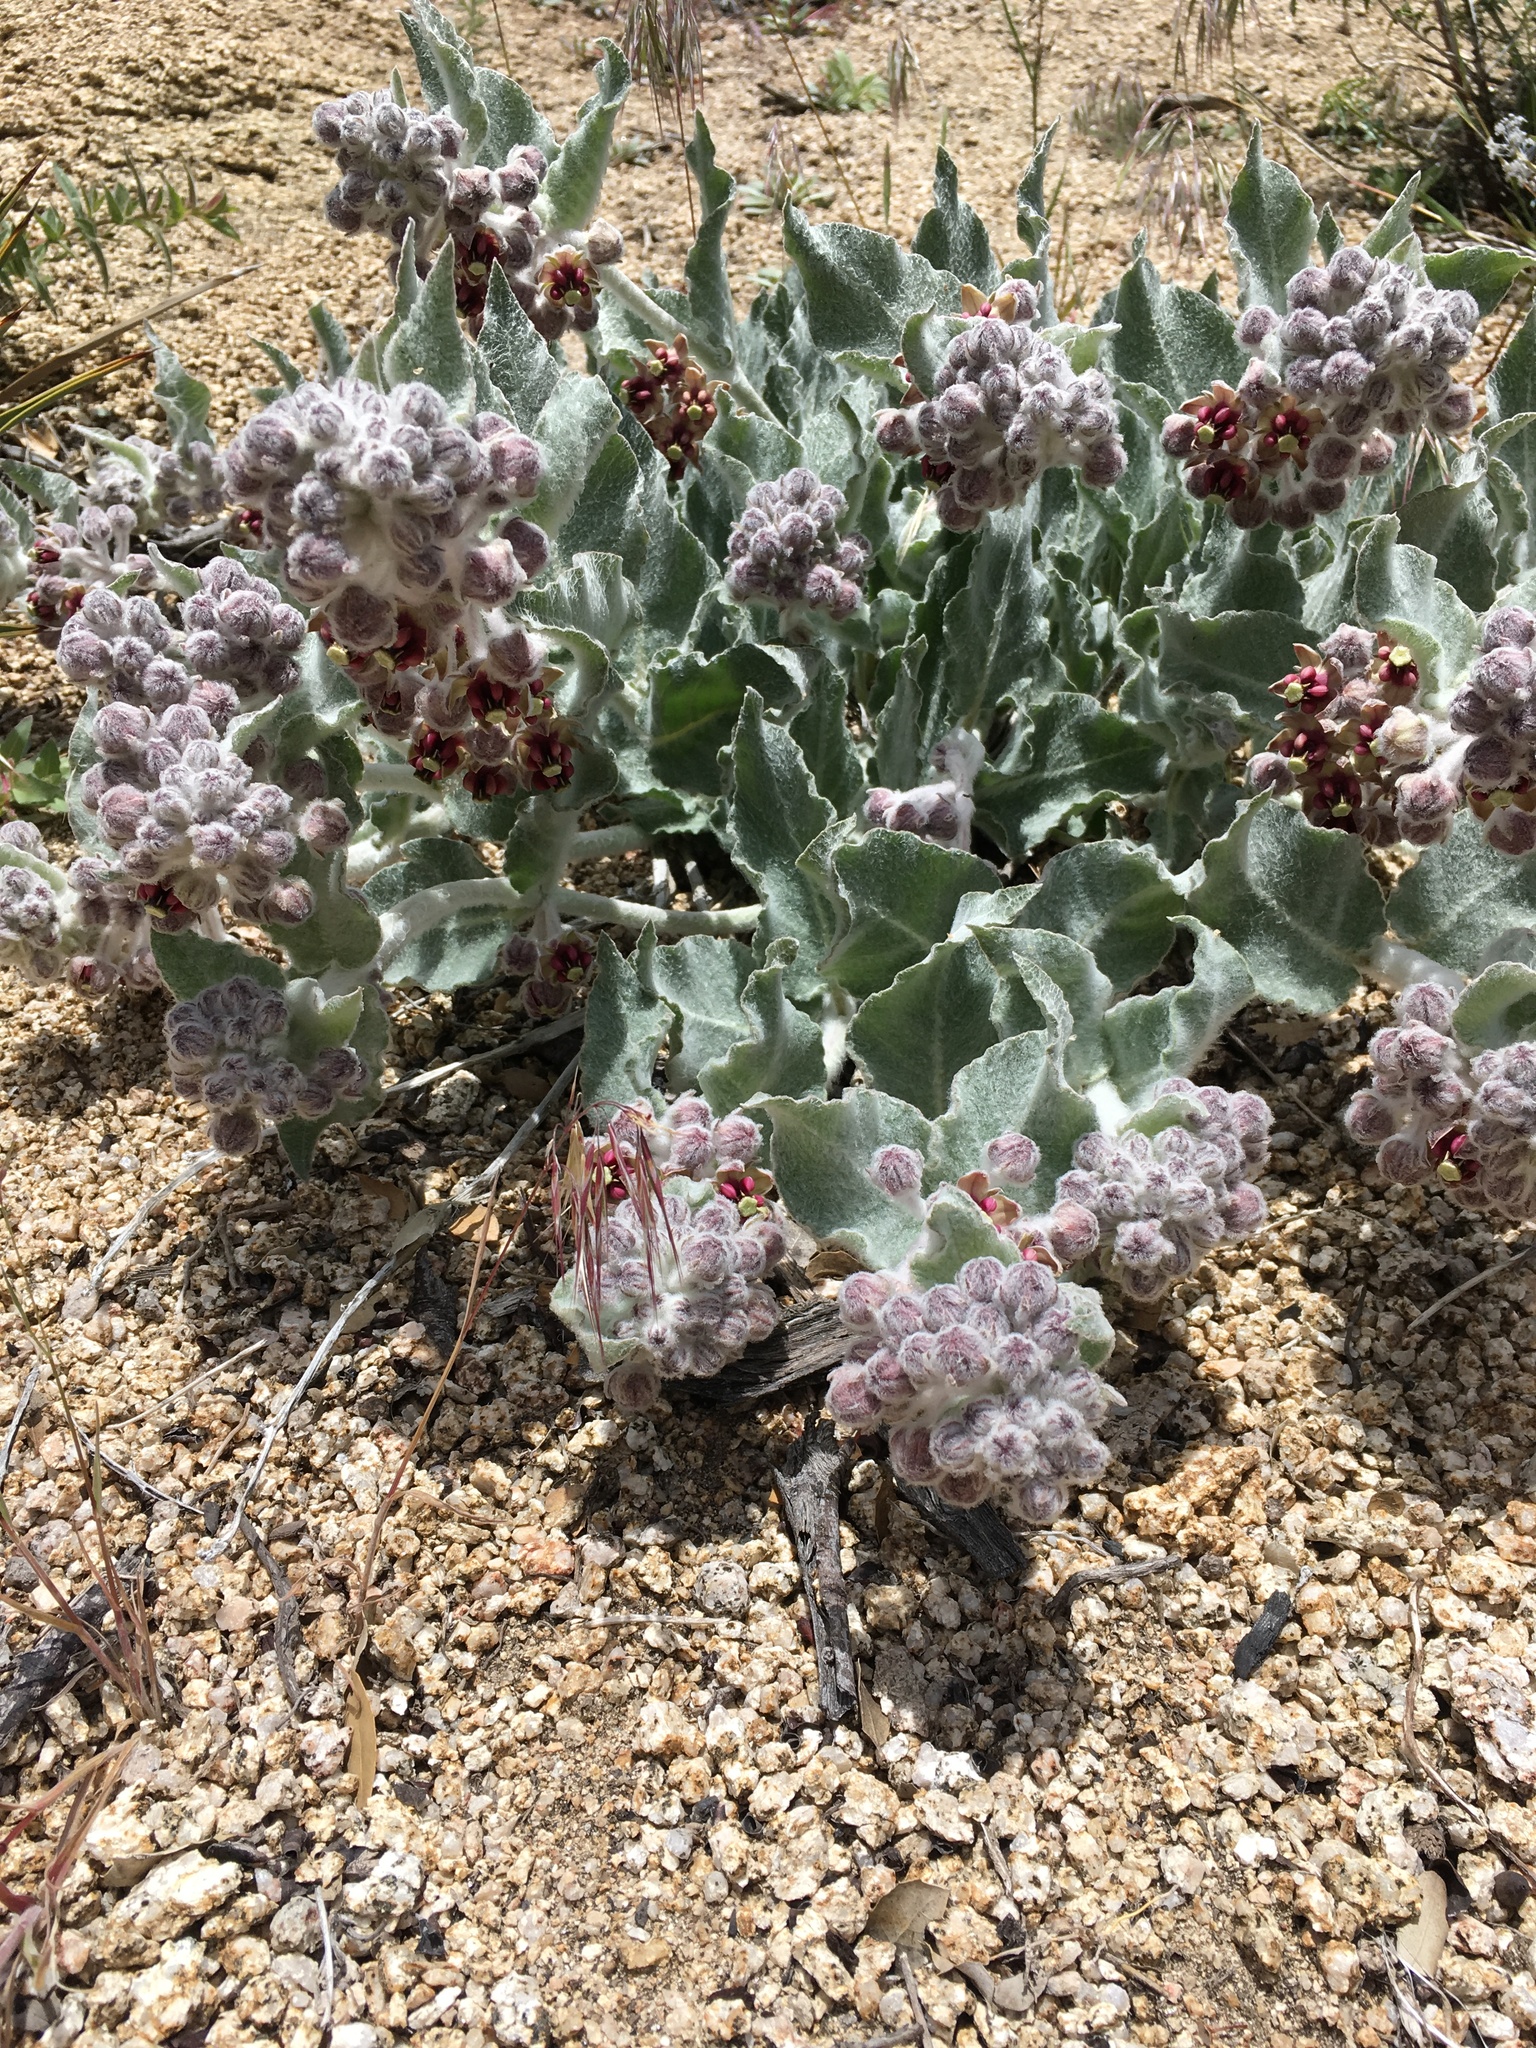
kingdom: Plantae
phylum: Tracheophyta
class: Magnoliopsida
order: Gentianales
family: Apocynaceae
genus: Asclepias
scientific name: Asclepias californica
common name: California milkweed
